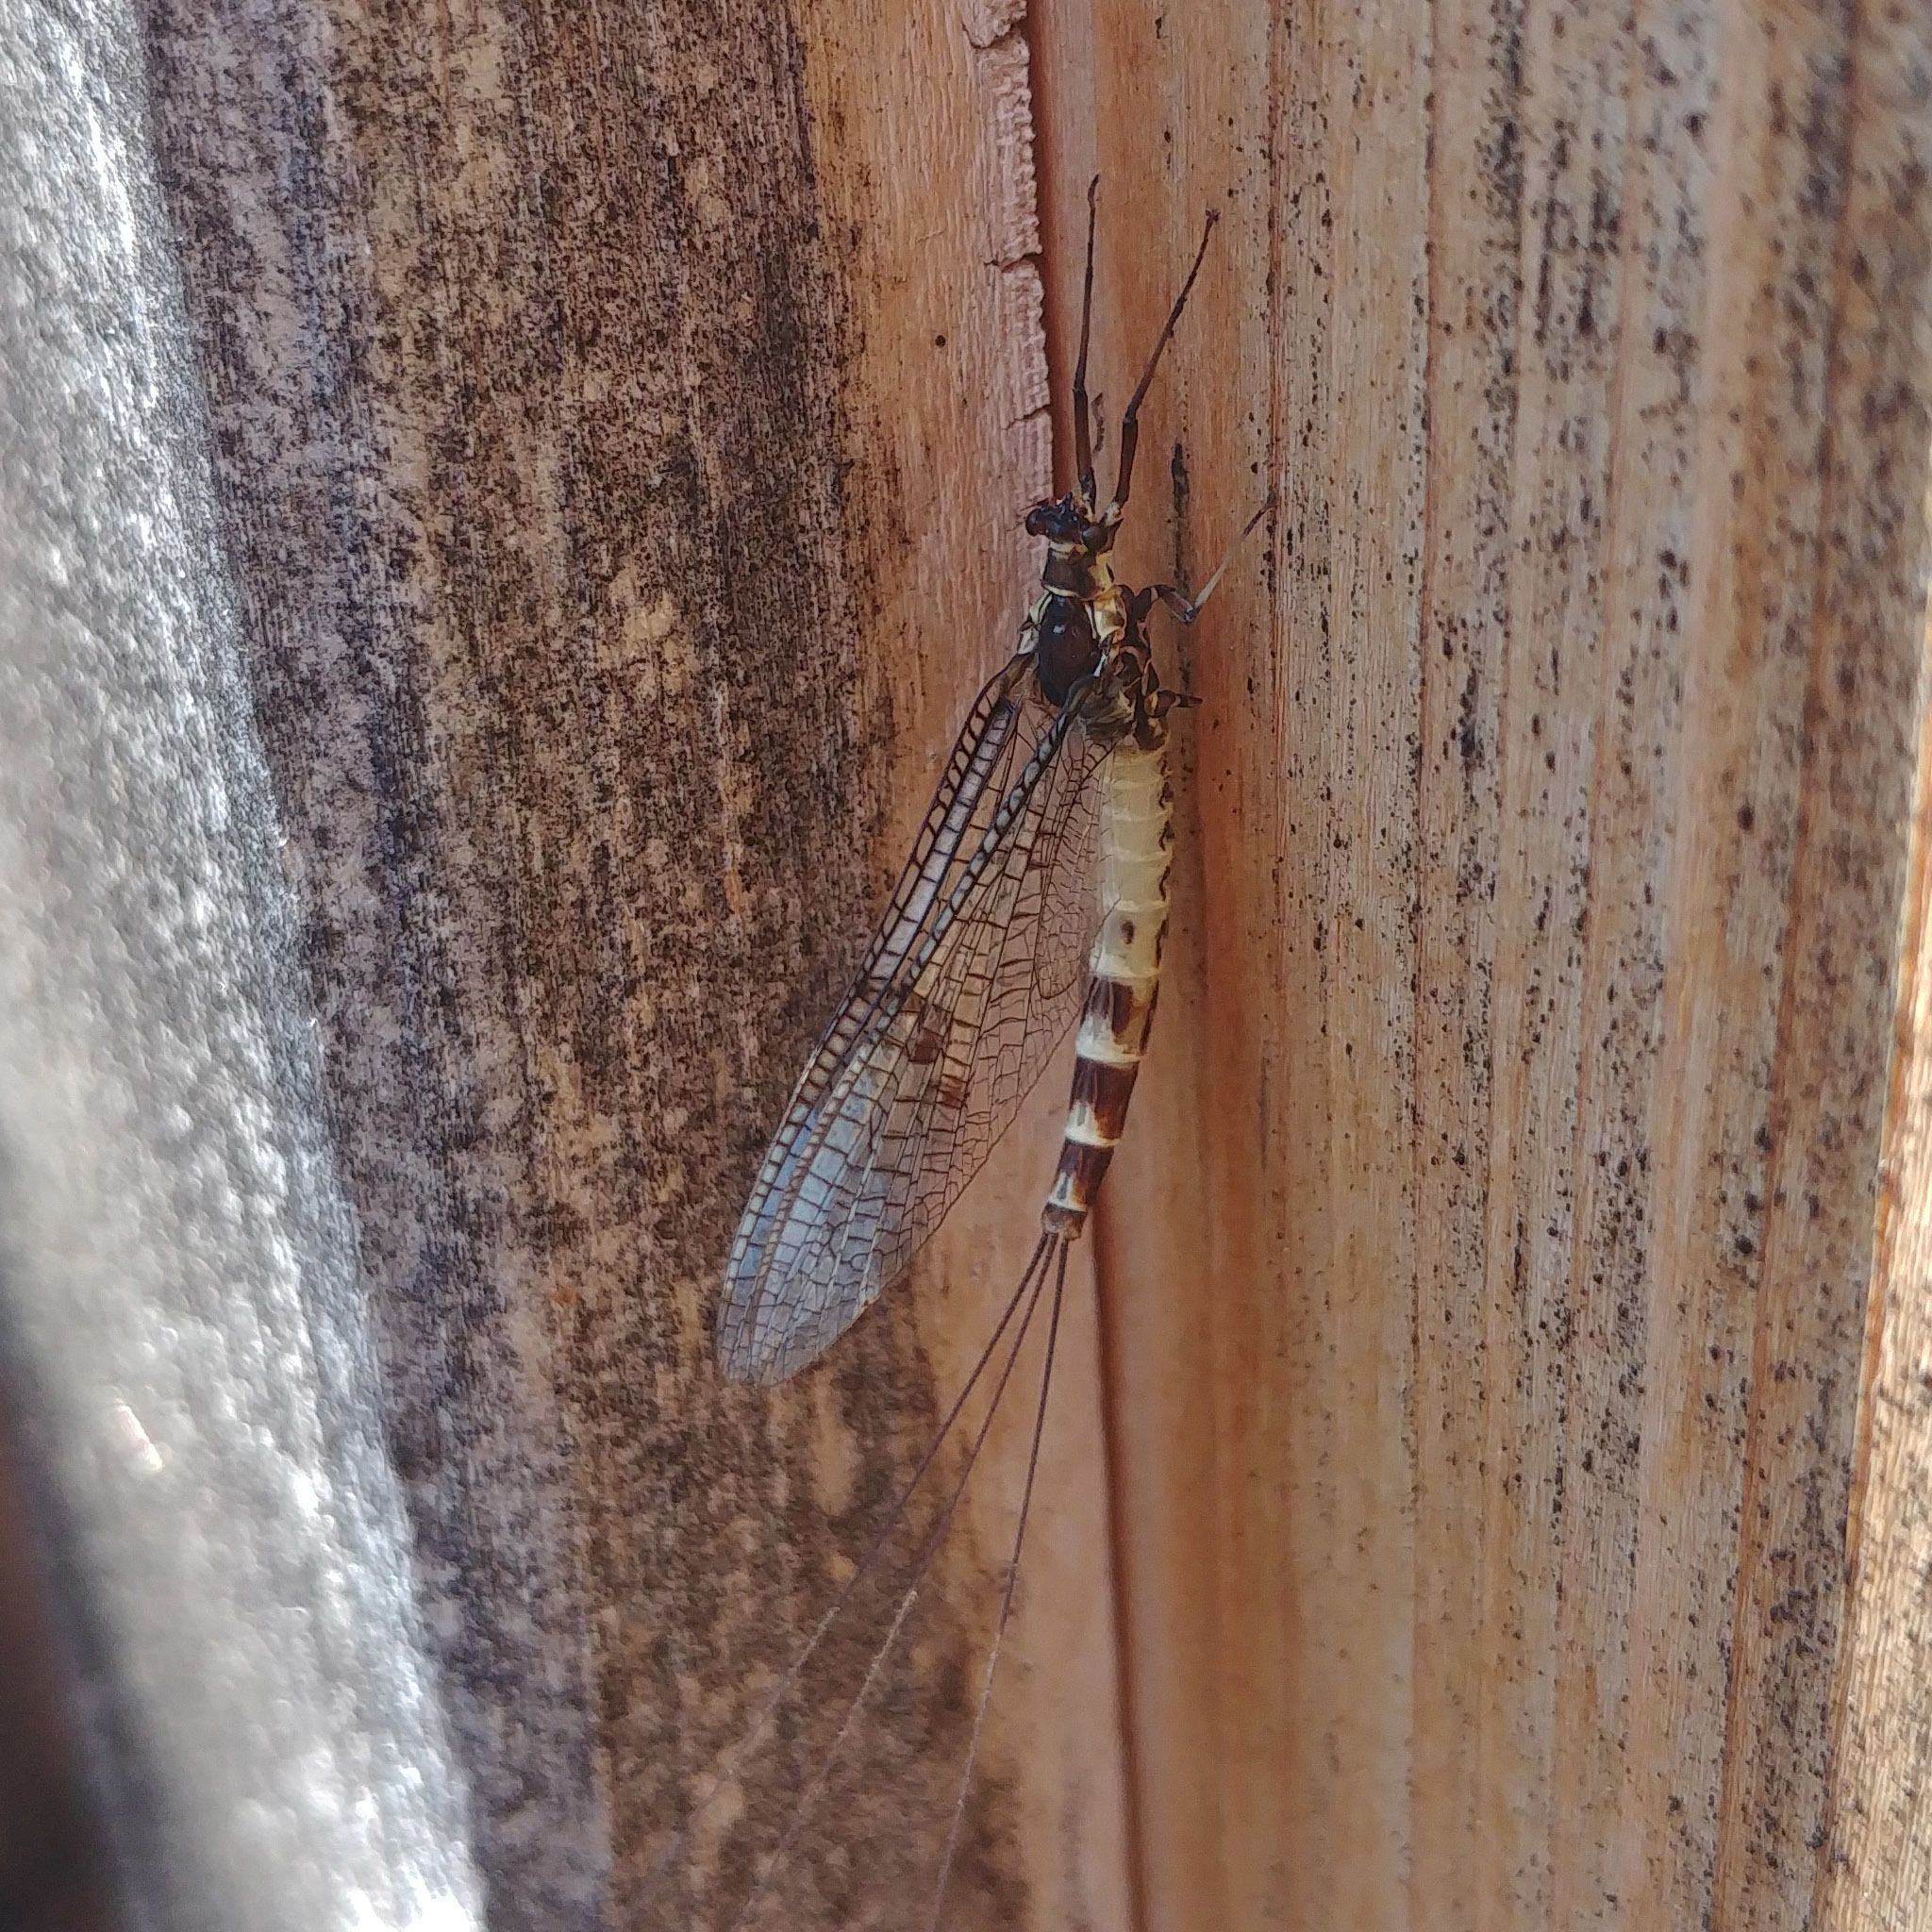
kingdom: Animalia
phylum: Arthropoda
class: Insecta
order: Ephemeroptera
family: Ephemeridae
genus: Ephemera
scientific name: Ephemera danica
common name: Green dun
